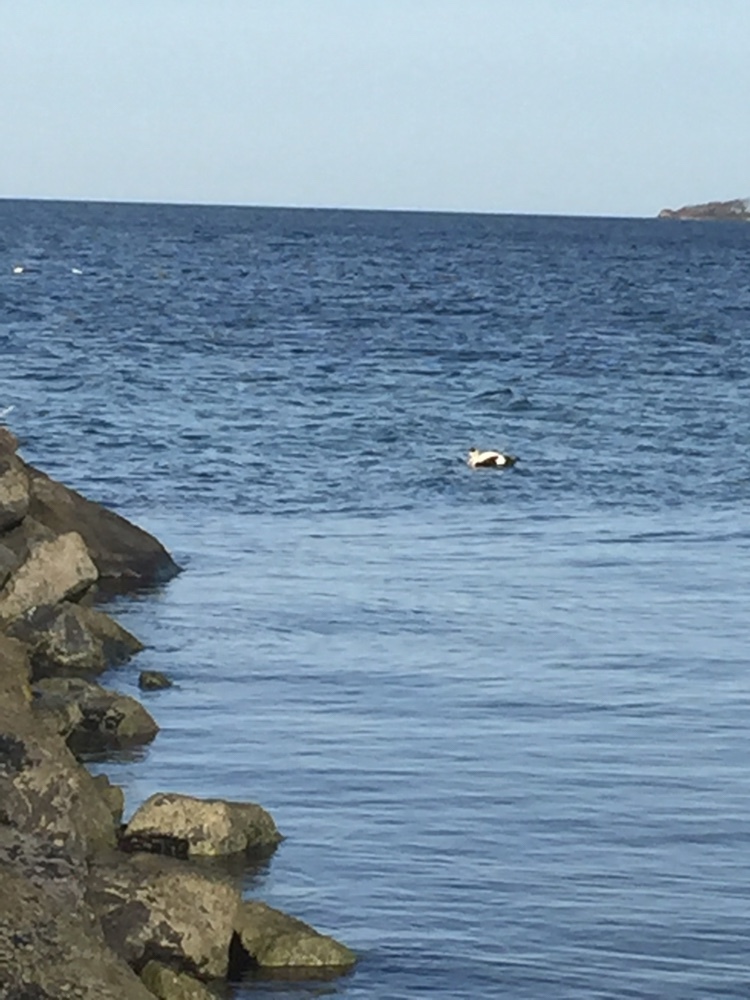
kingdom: Animalia
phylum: Chordata
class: Aves
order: Anseriformes
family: Anatidae
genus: Somateria
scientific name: Somateria mollissima
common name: Common eider
